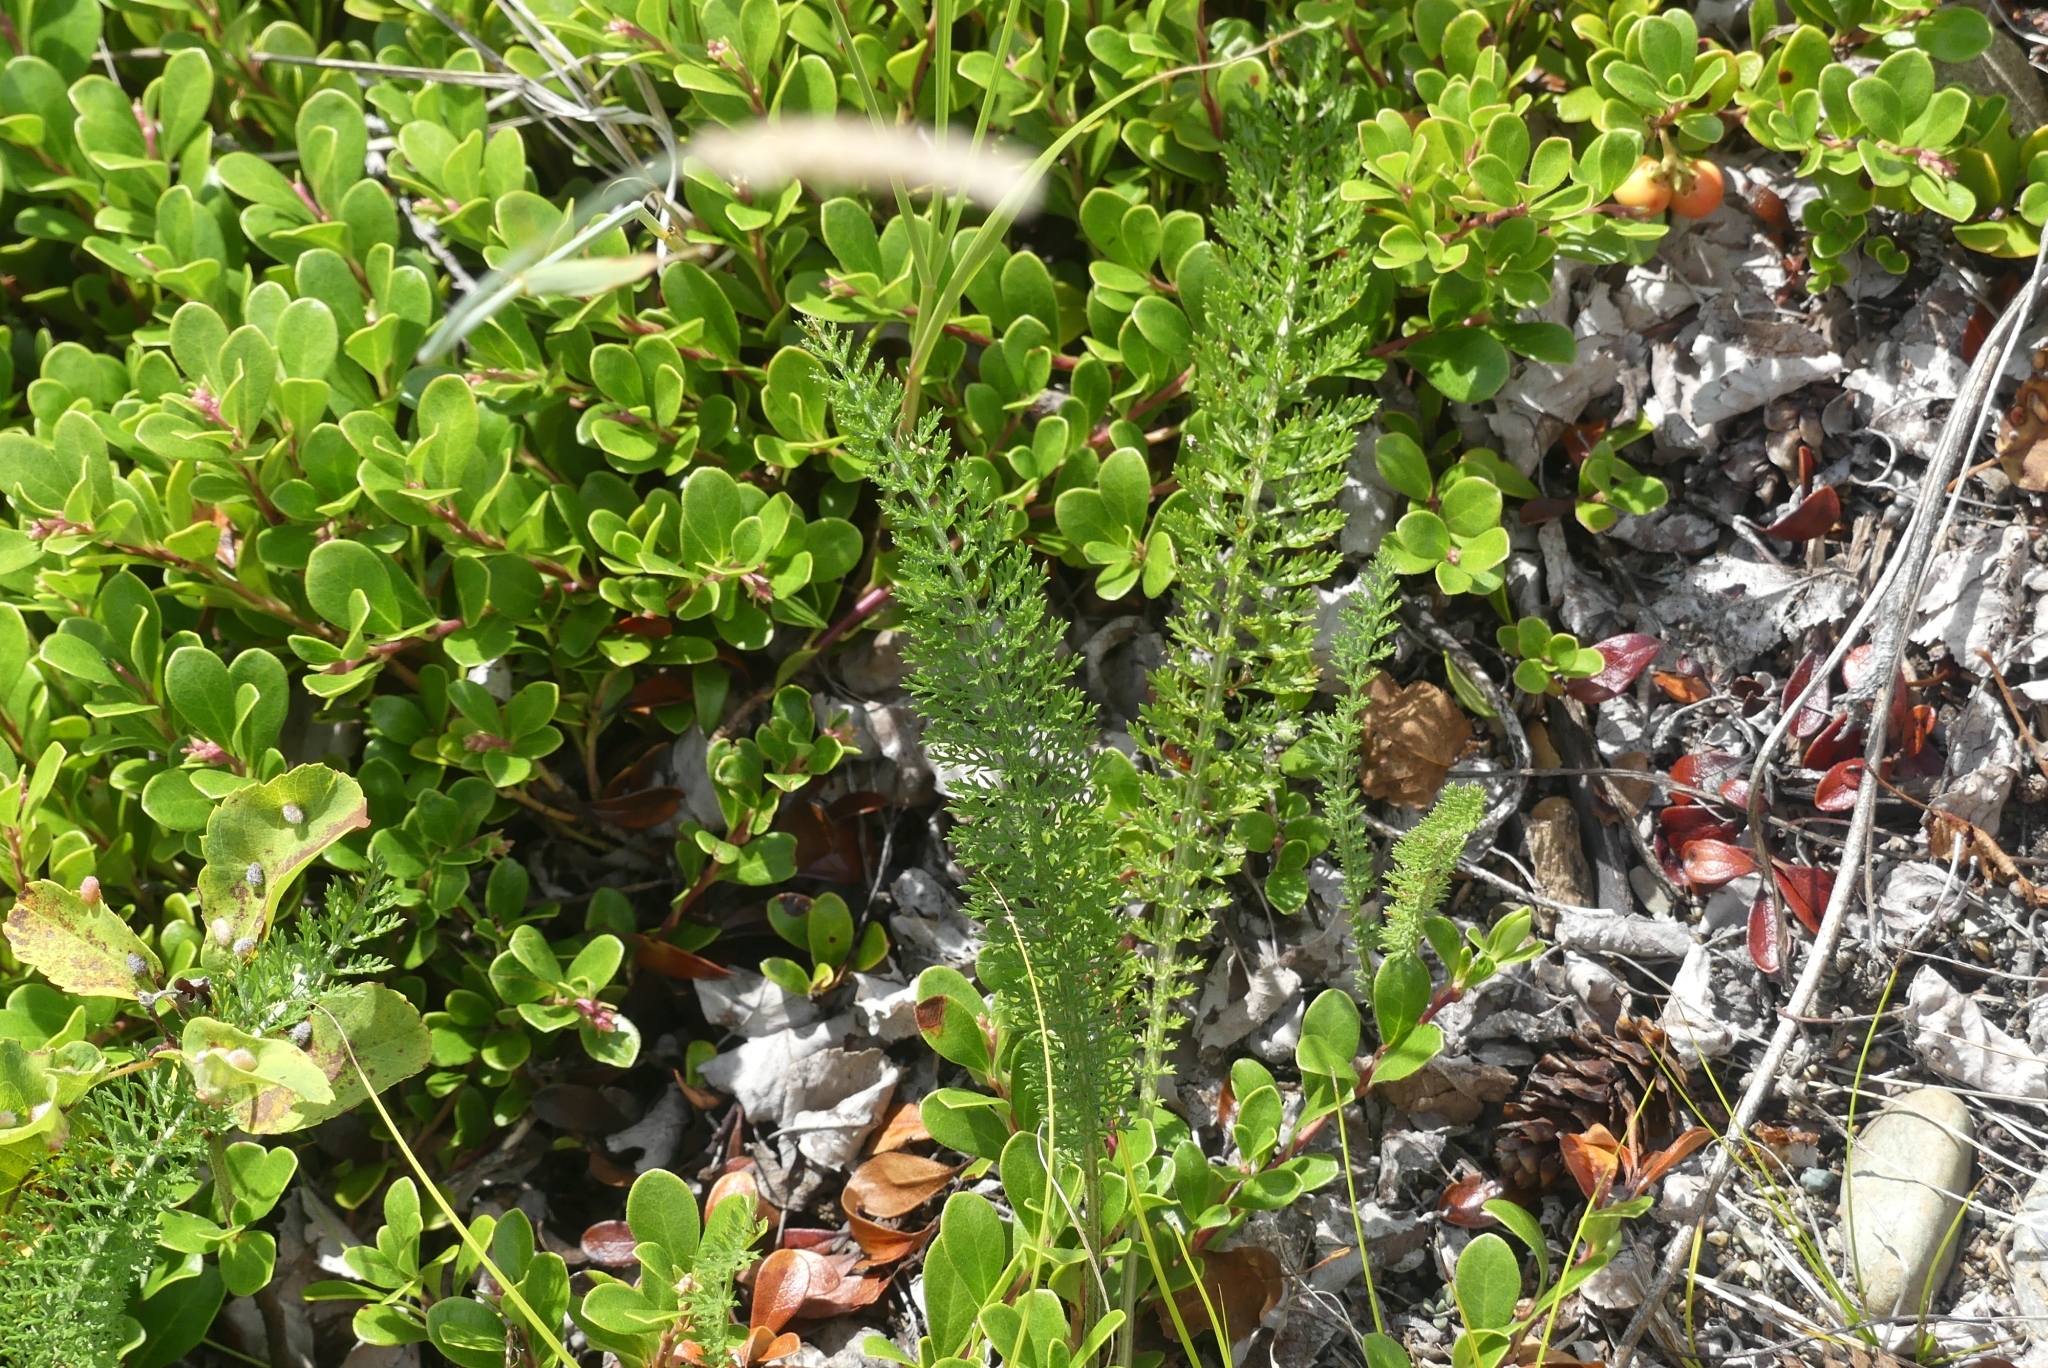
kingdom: Plantae
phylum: Tracheophyta
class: Magnoliopsida
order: Asterales
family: Asteraceae
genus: Achillea
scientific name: Achillea millefolium
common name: Yarrow
